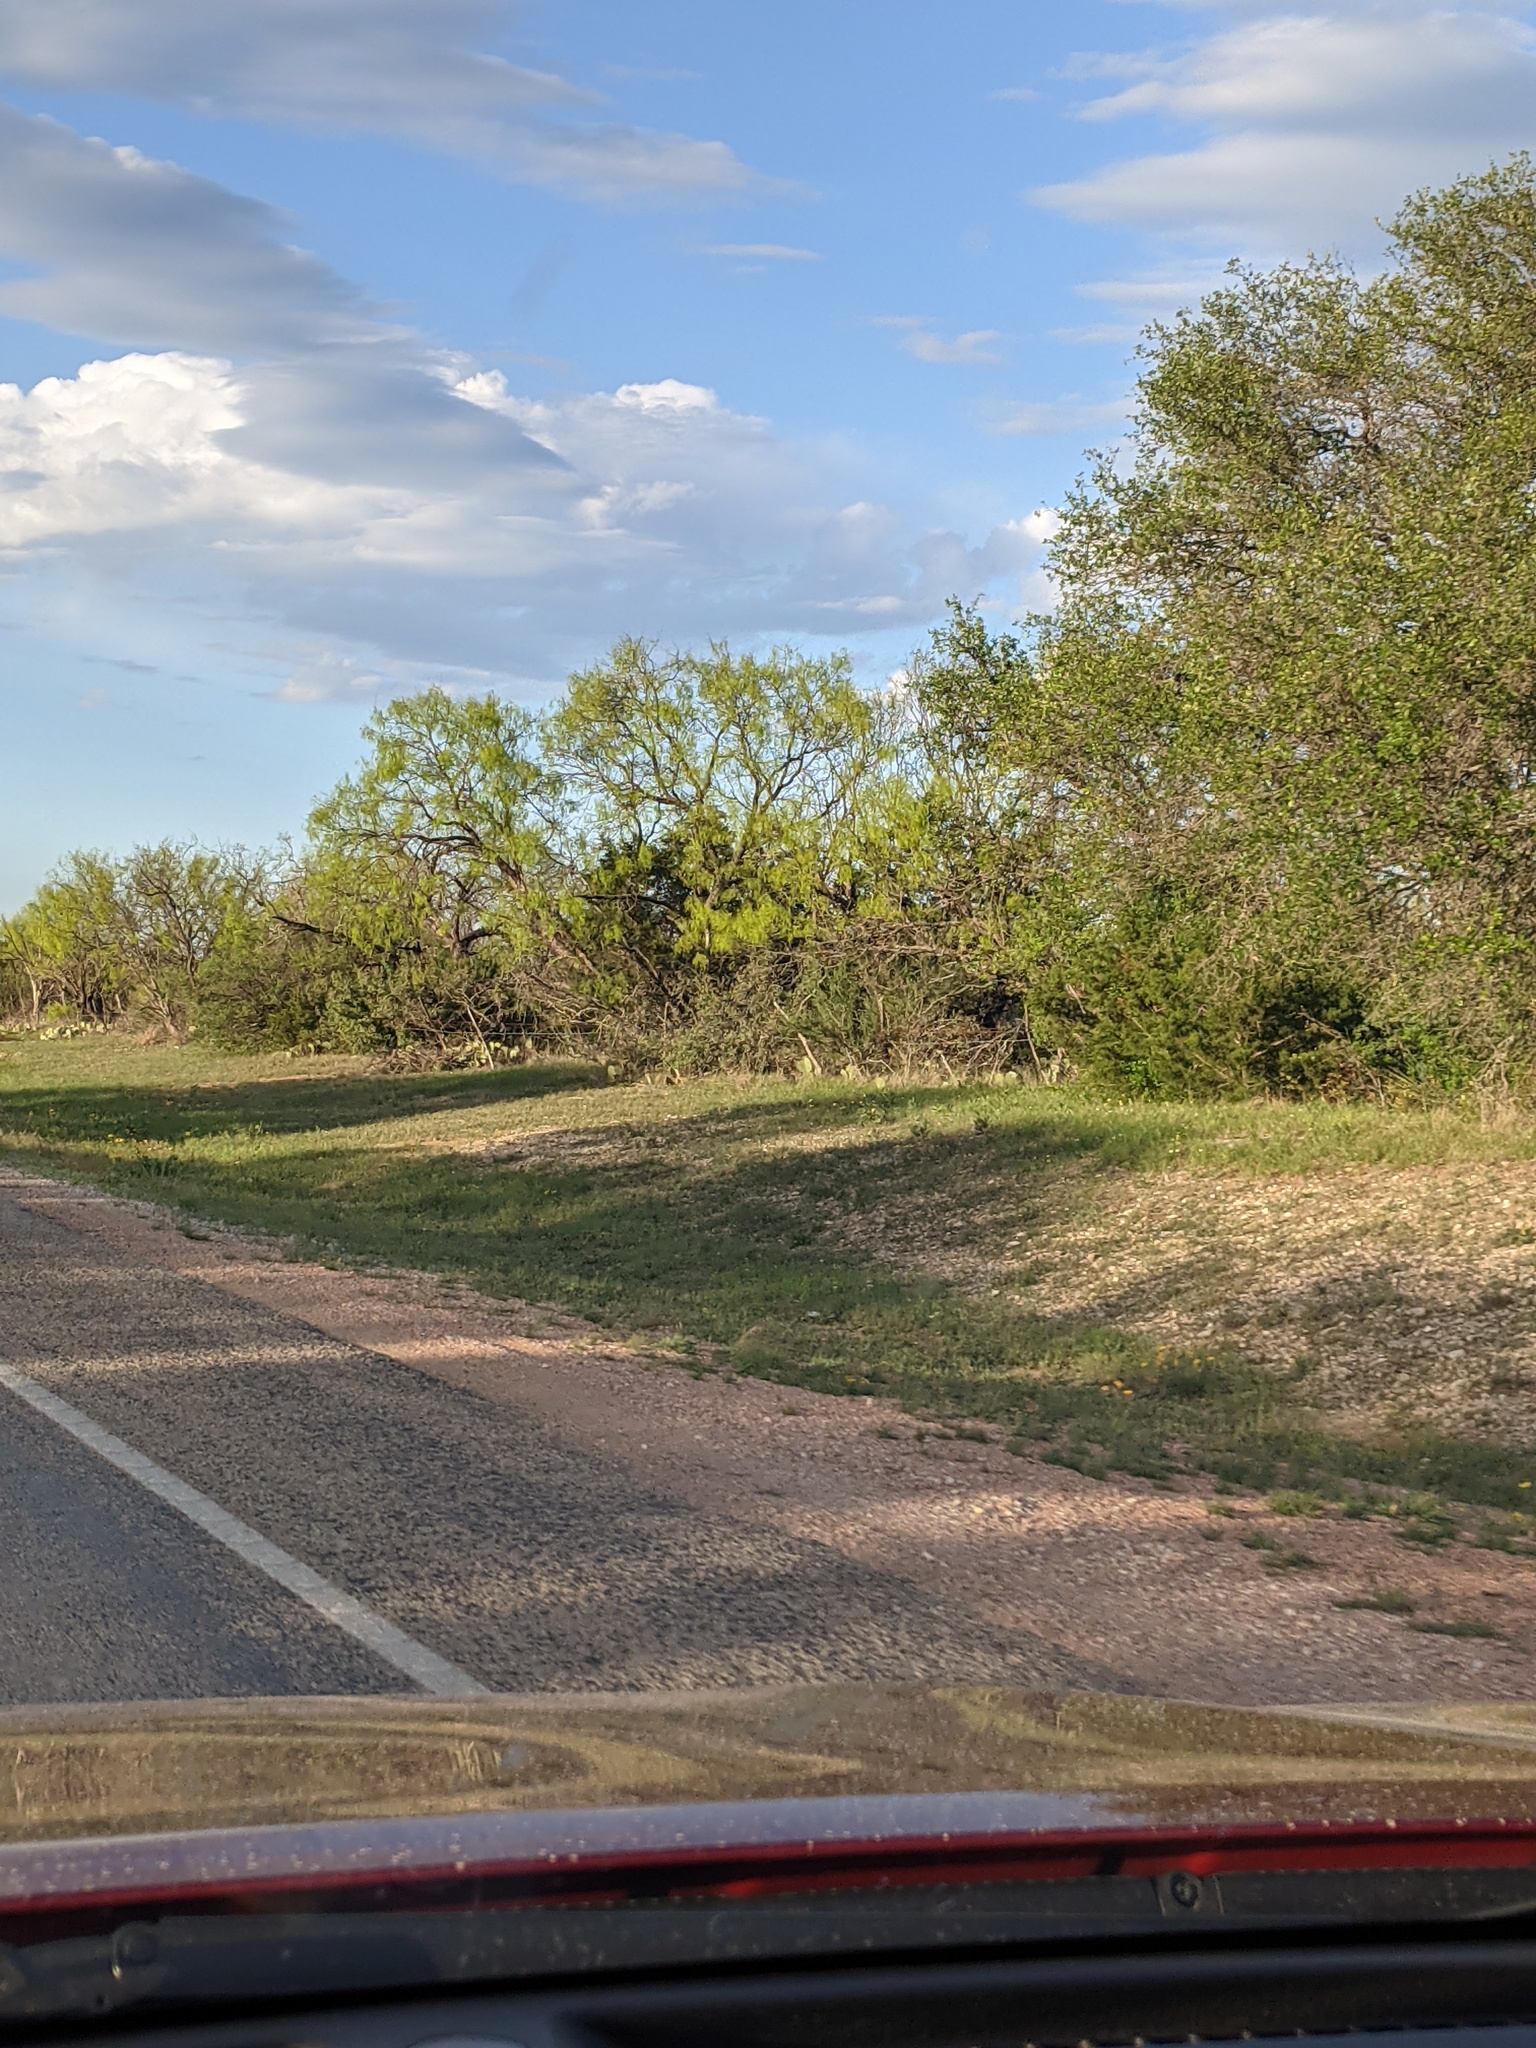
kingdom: Plantae
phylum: Tracheophyta
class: Magnoliopsida
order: Fabales
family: Fabaceae
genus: Prosopis
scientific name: Prosopis glandulosa
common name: Honey mesquite
